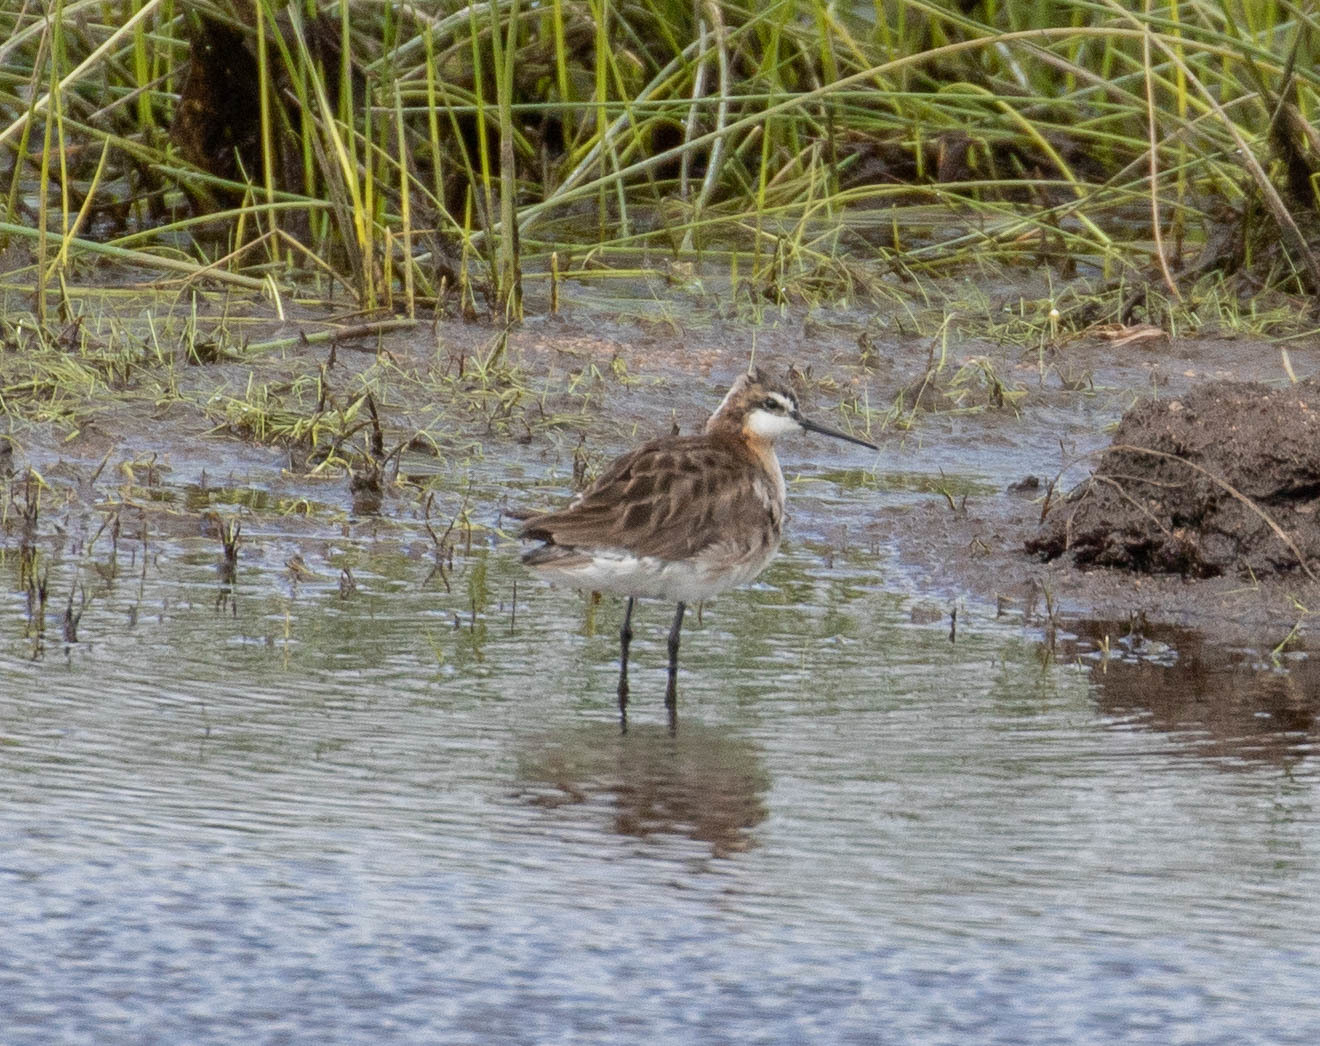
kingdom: Animalia
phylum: Chordata
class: Aves
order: Charadriiformes
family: Scolopacidae
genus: Phalaropus
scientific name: Phalaropus tricolor
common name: Wilson's phalarope
